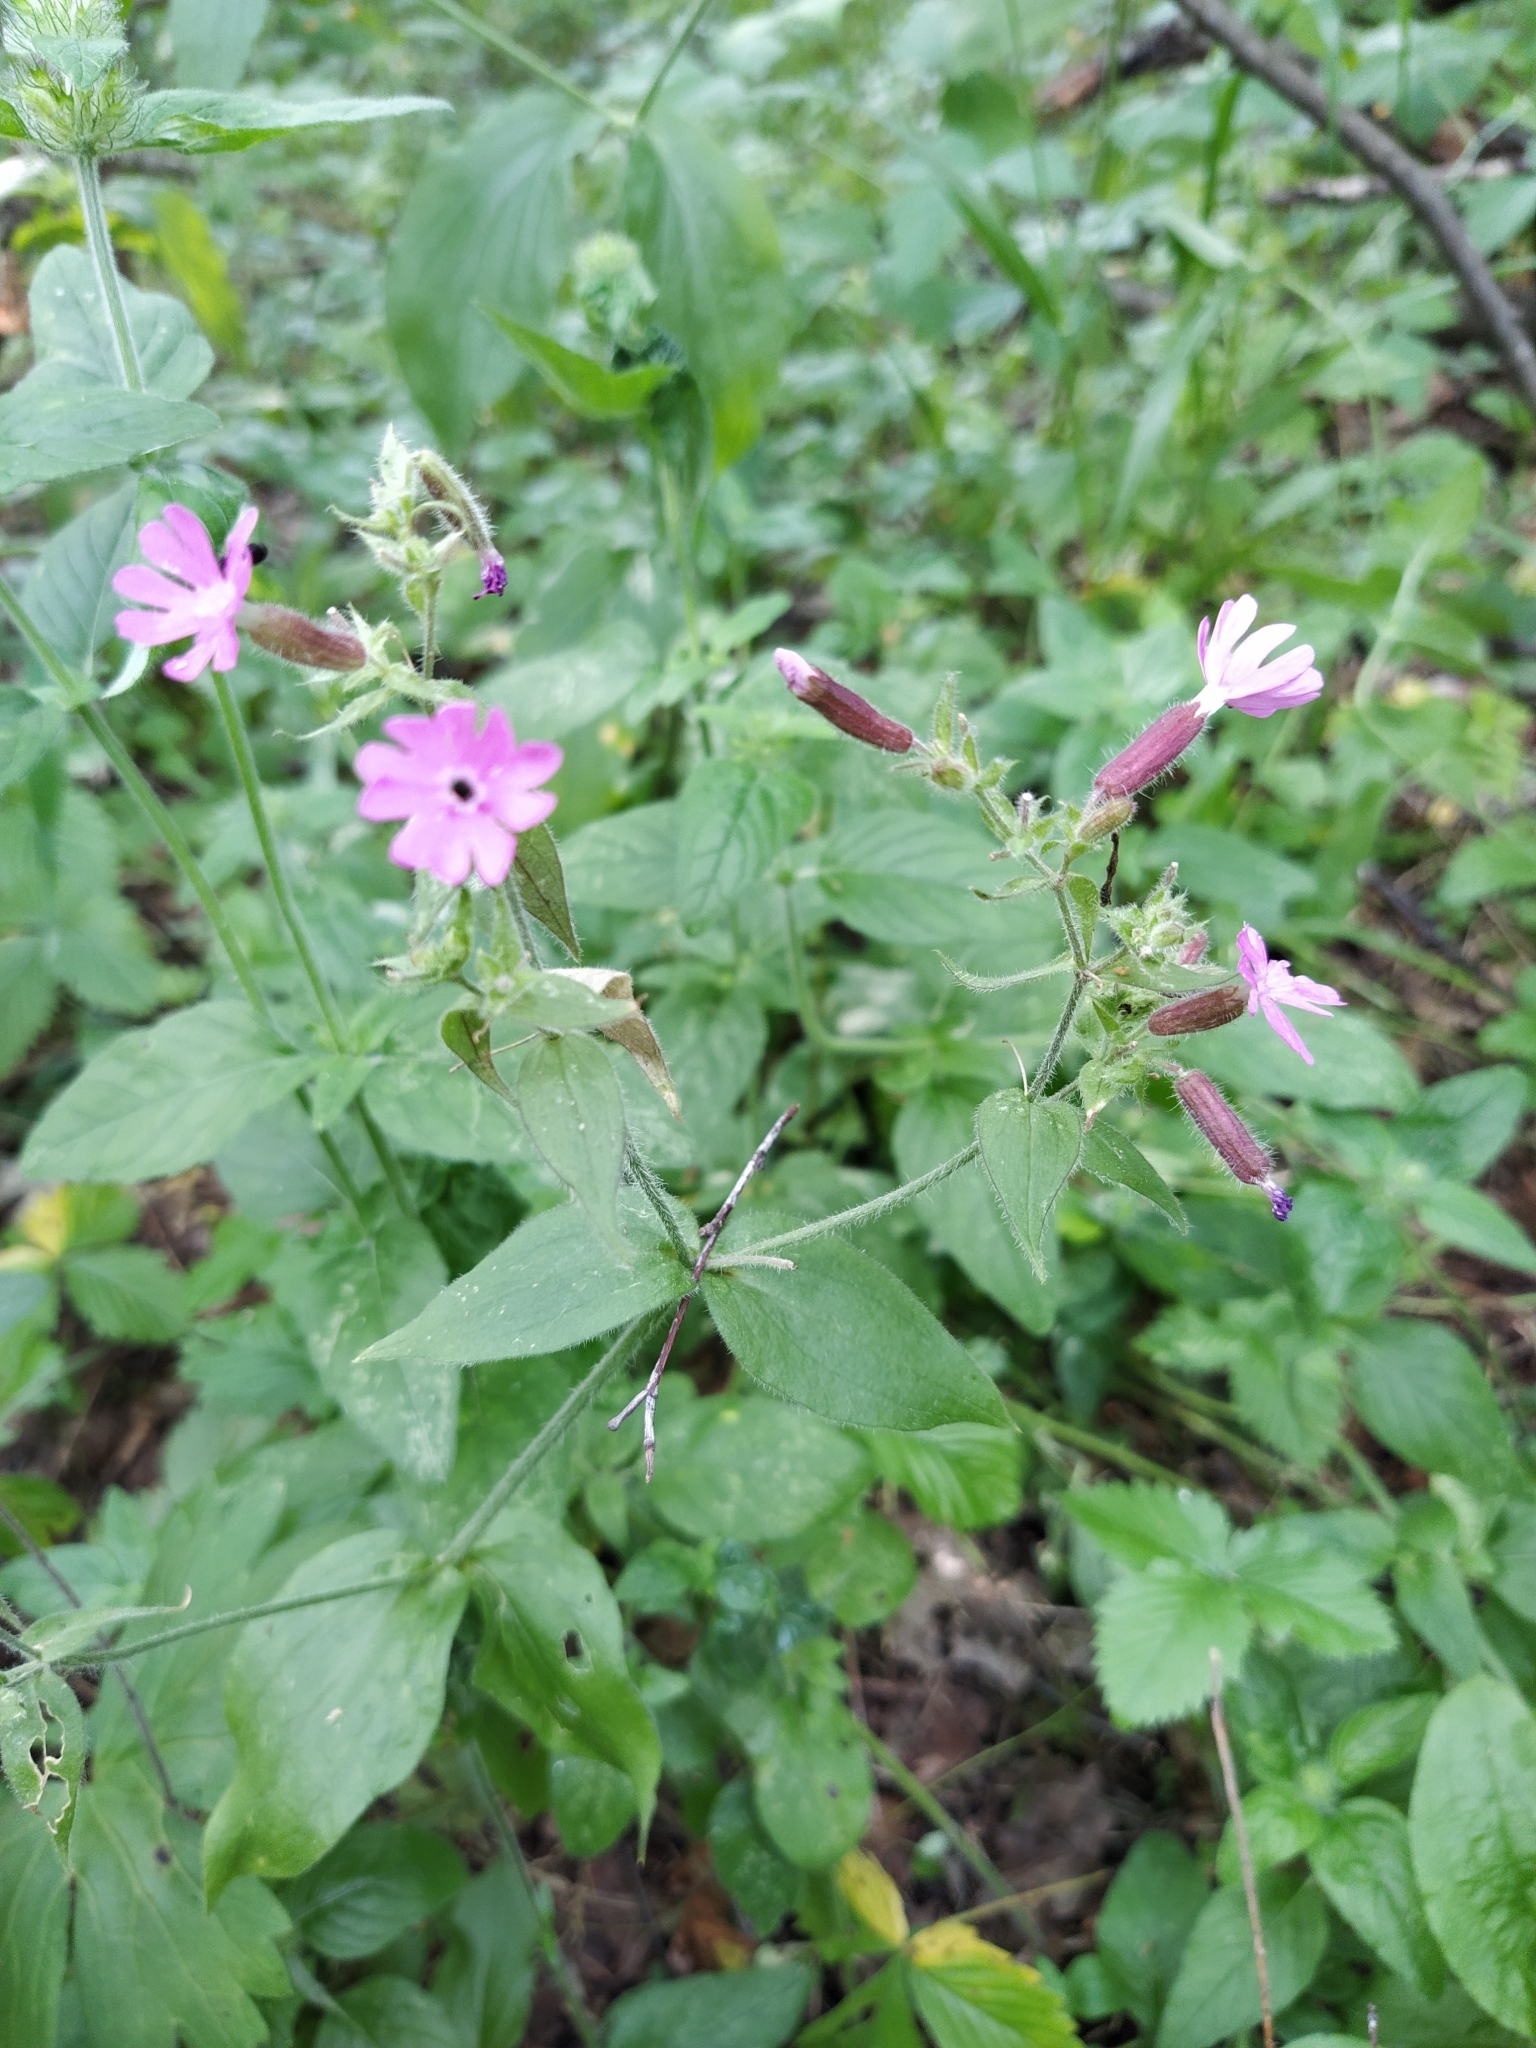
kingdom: Plantae
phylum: Tracheophyta
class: Magnoliopsida
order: Caryophyllales
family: Caryophyllaceae
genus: Silene
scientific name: Silene dioica
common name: Red campion
